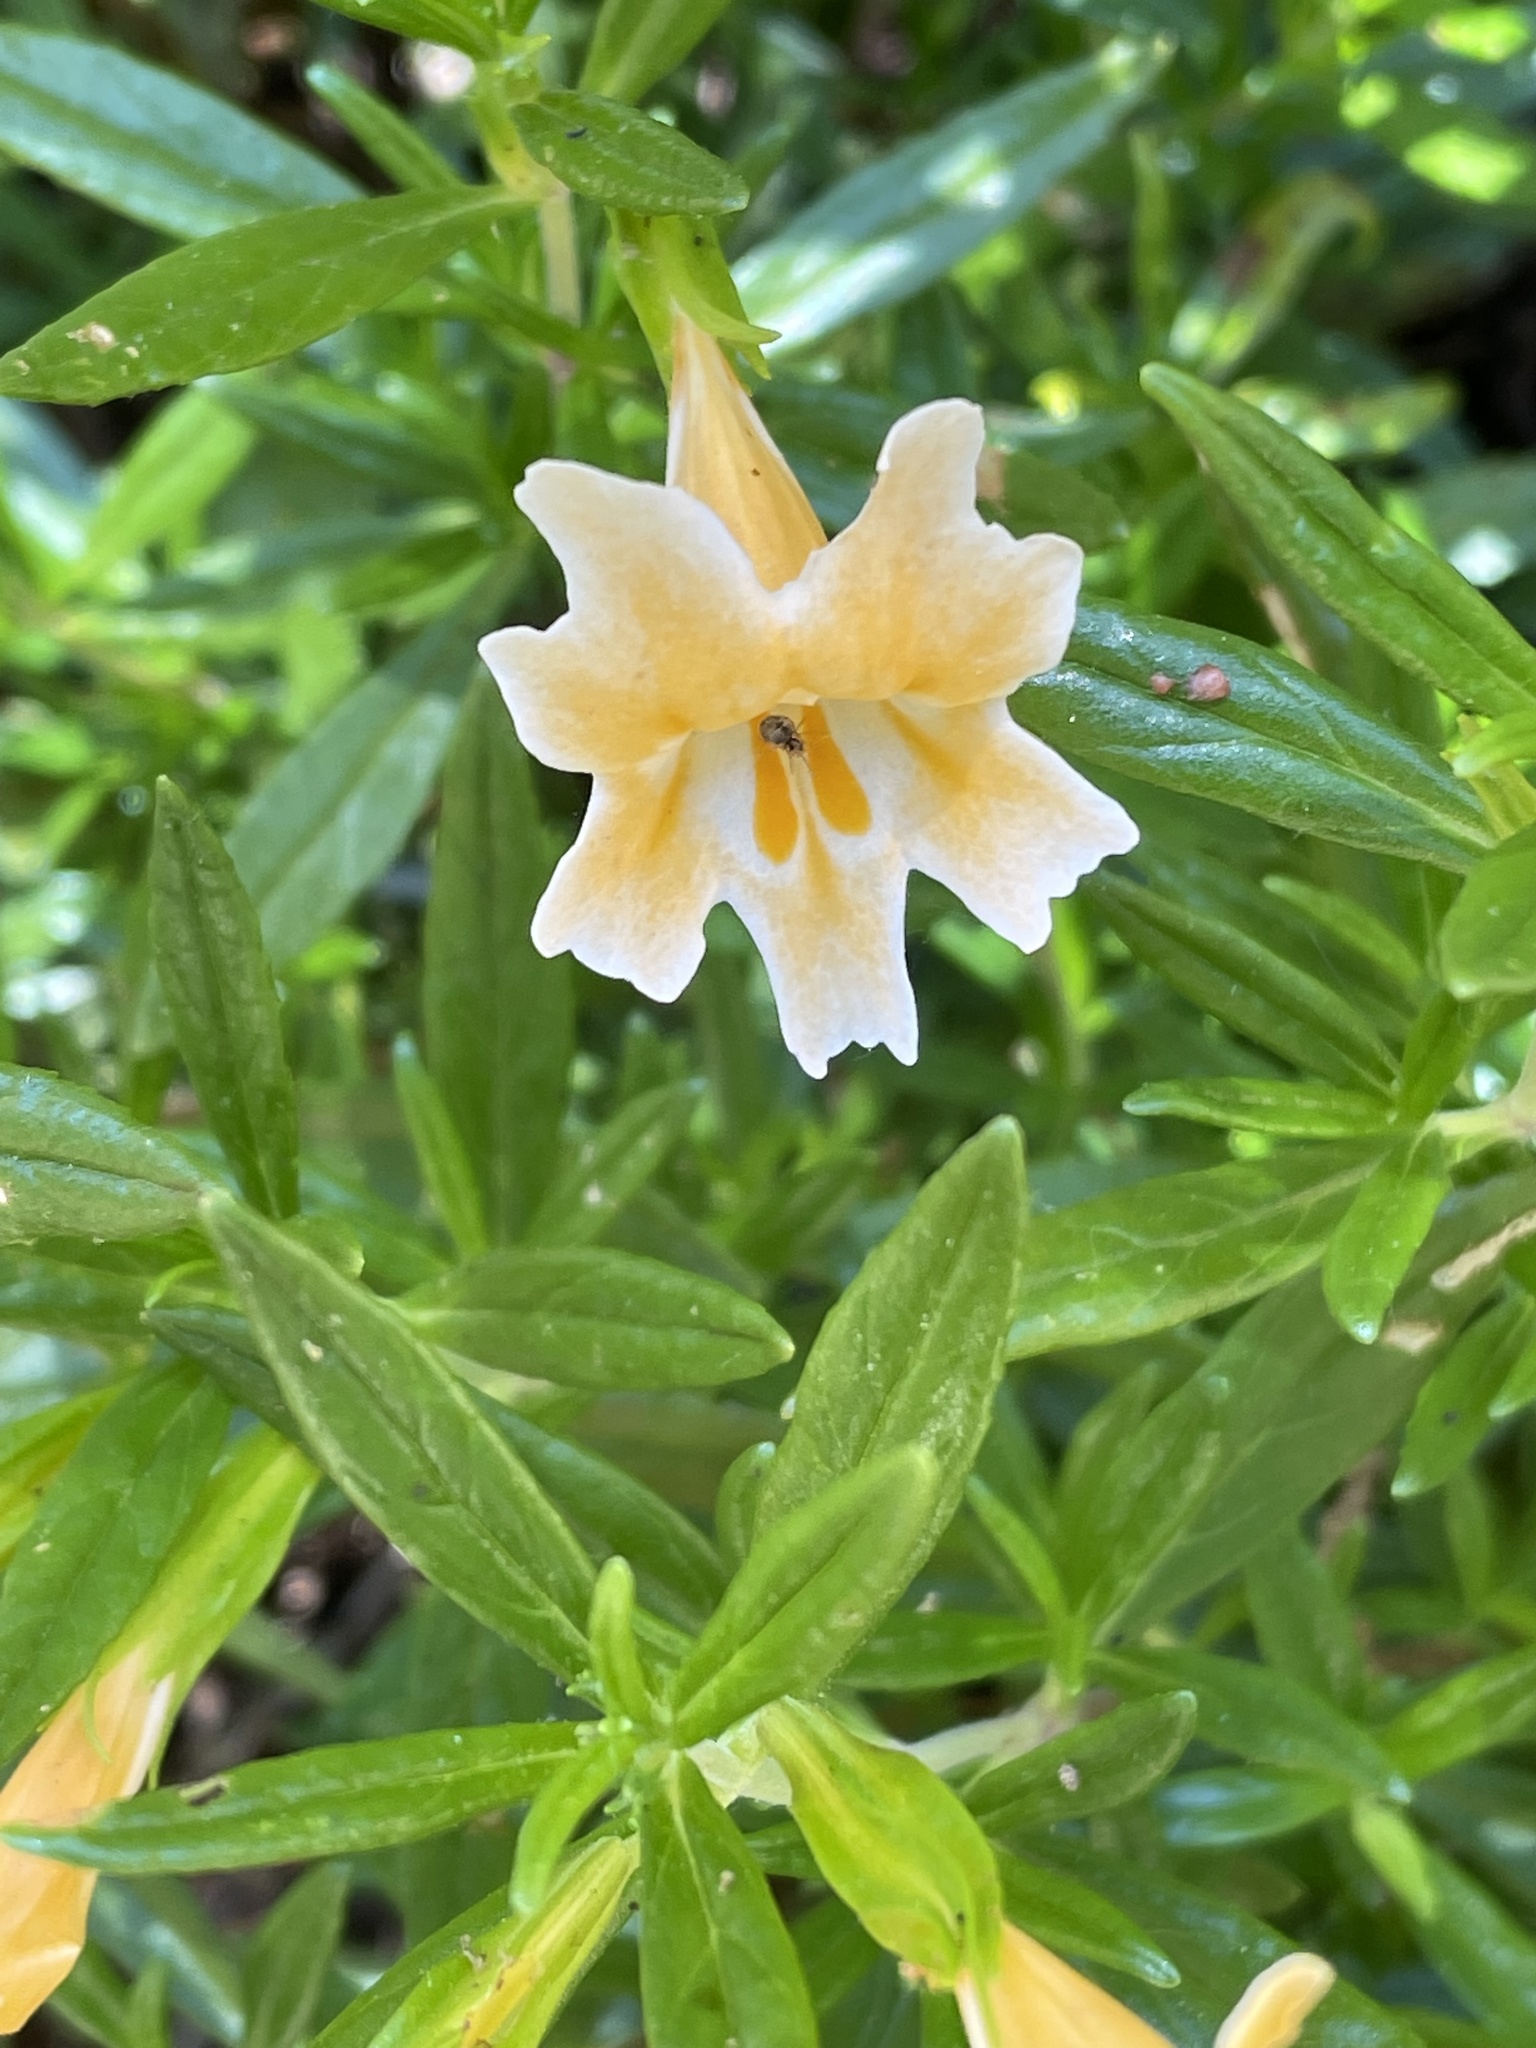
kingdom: Plantae
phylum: Tracheophyta
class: Magnoliopsida
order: Lamiales
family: Phrymaceae
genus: Diplacus
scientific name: Diplacus linearis
